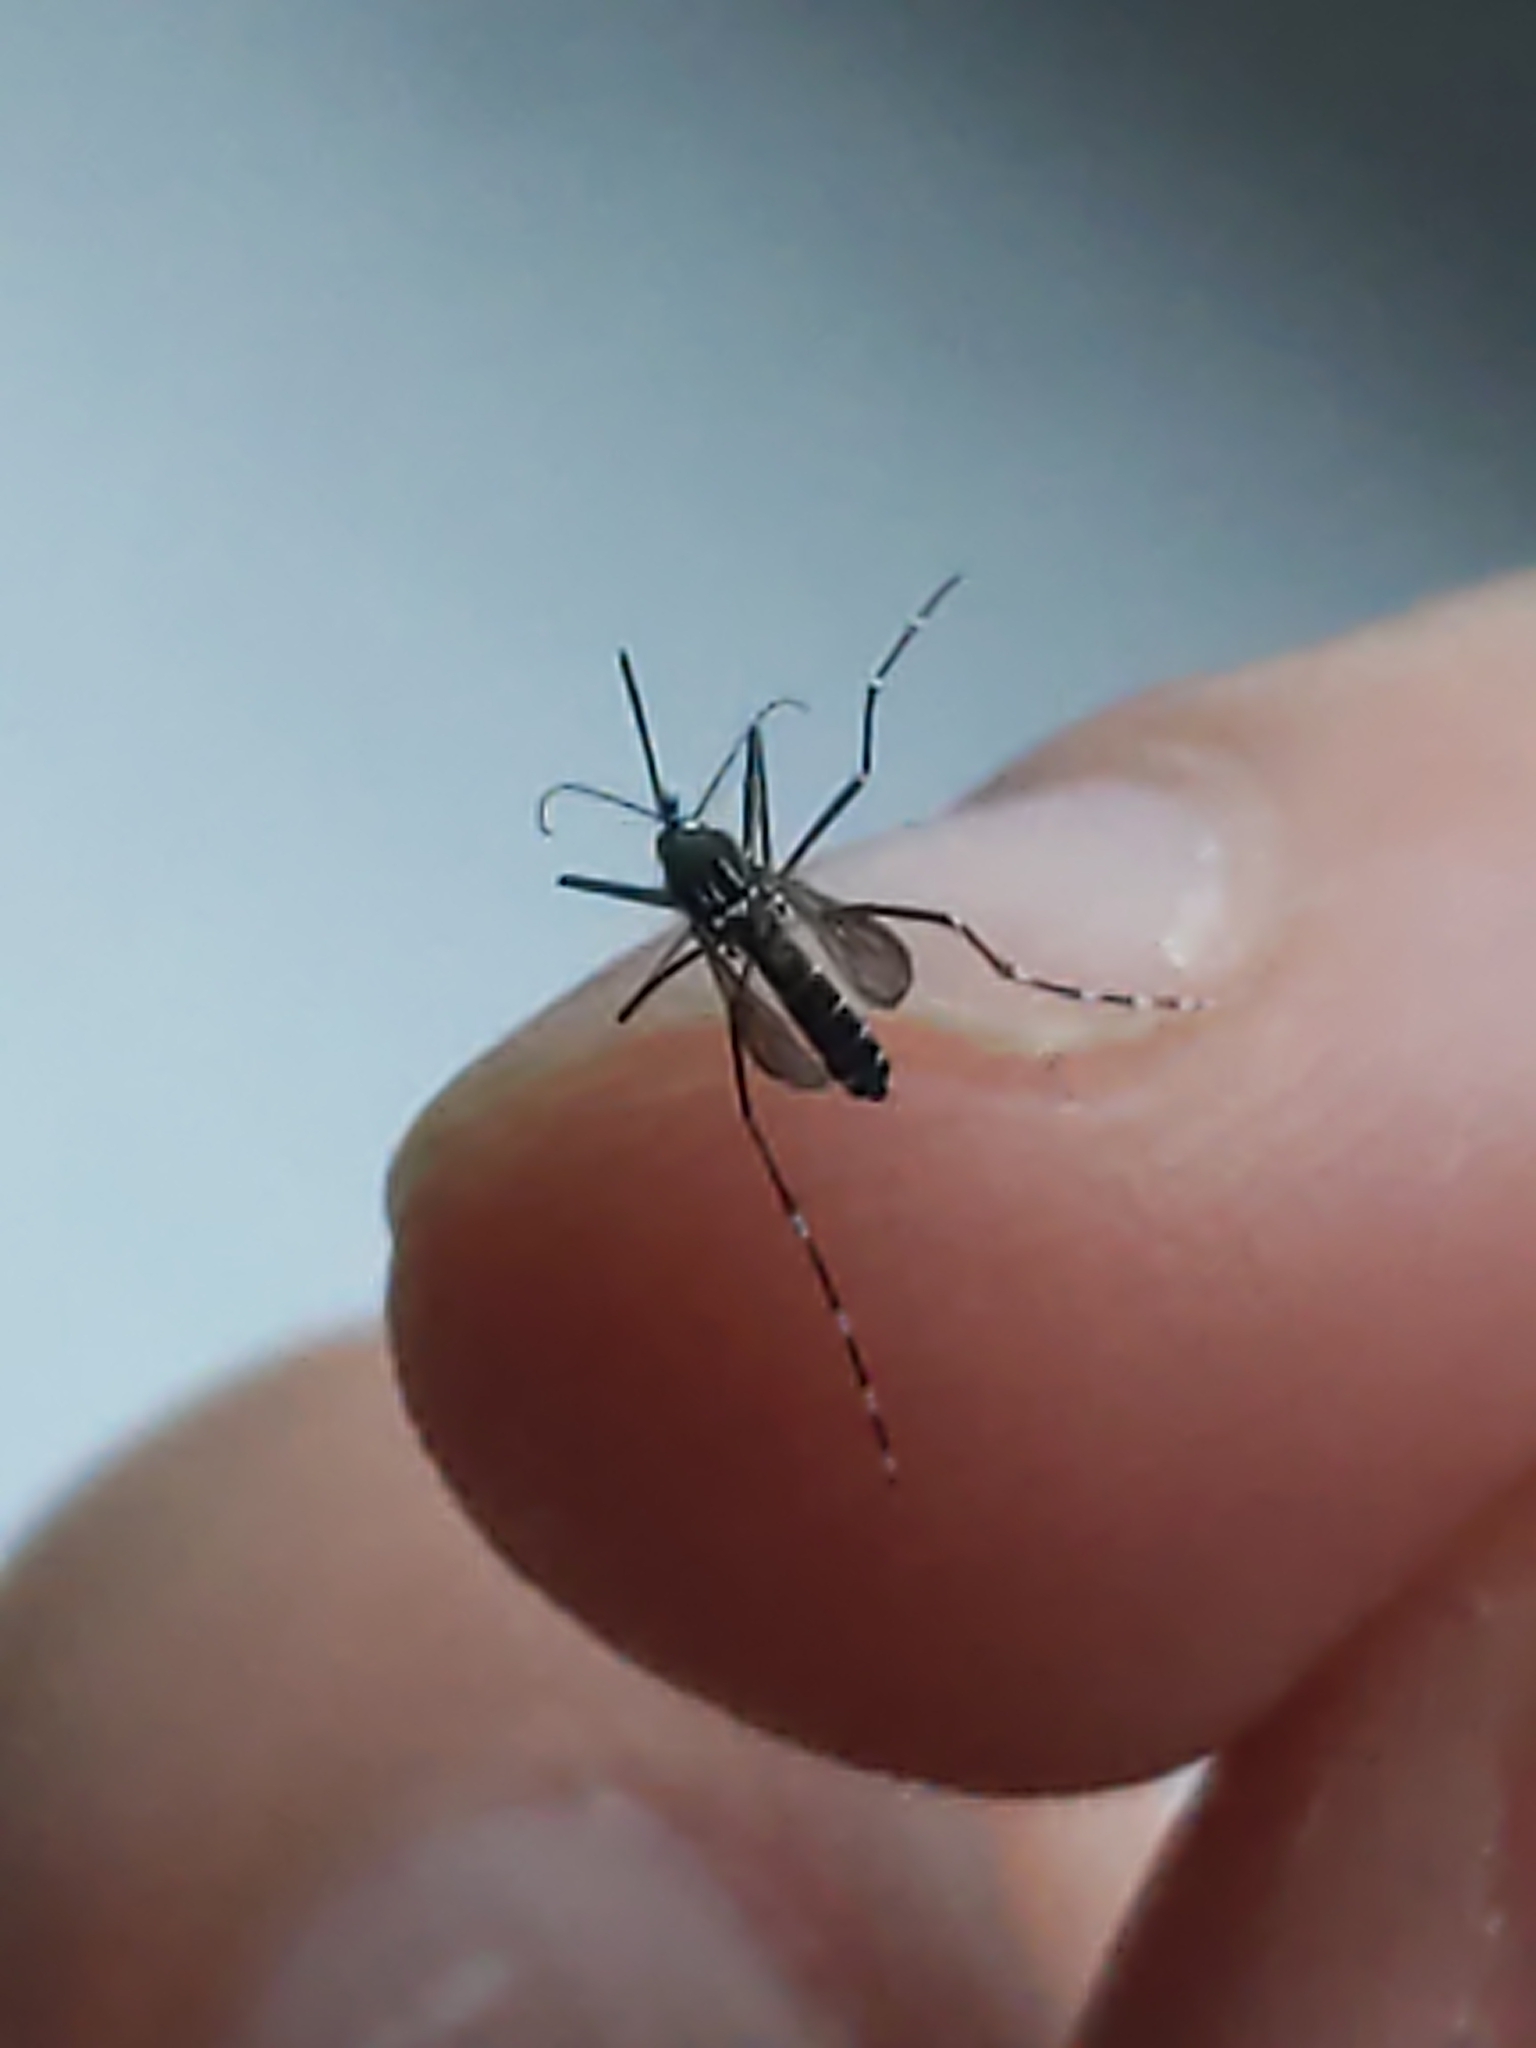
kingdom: Animalia
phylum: Arthropoda
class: Insecta
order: Diptera
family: Culicidae
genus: Stegomyia
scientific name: Stegomyia
